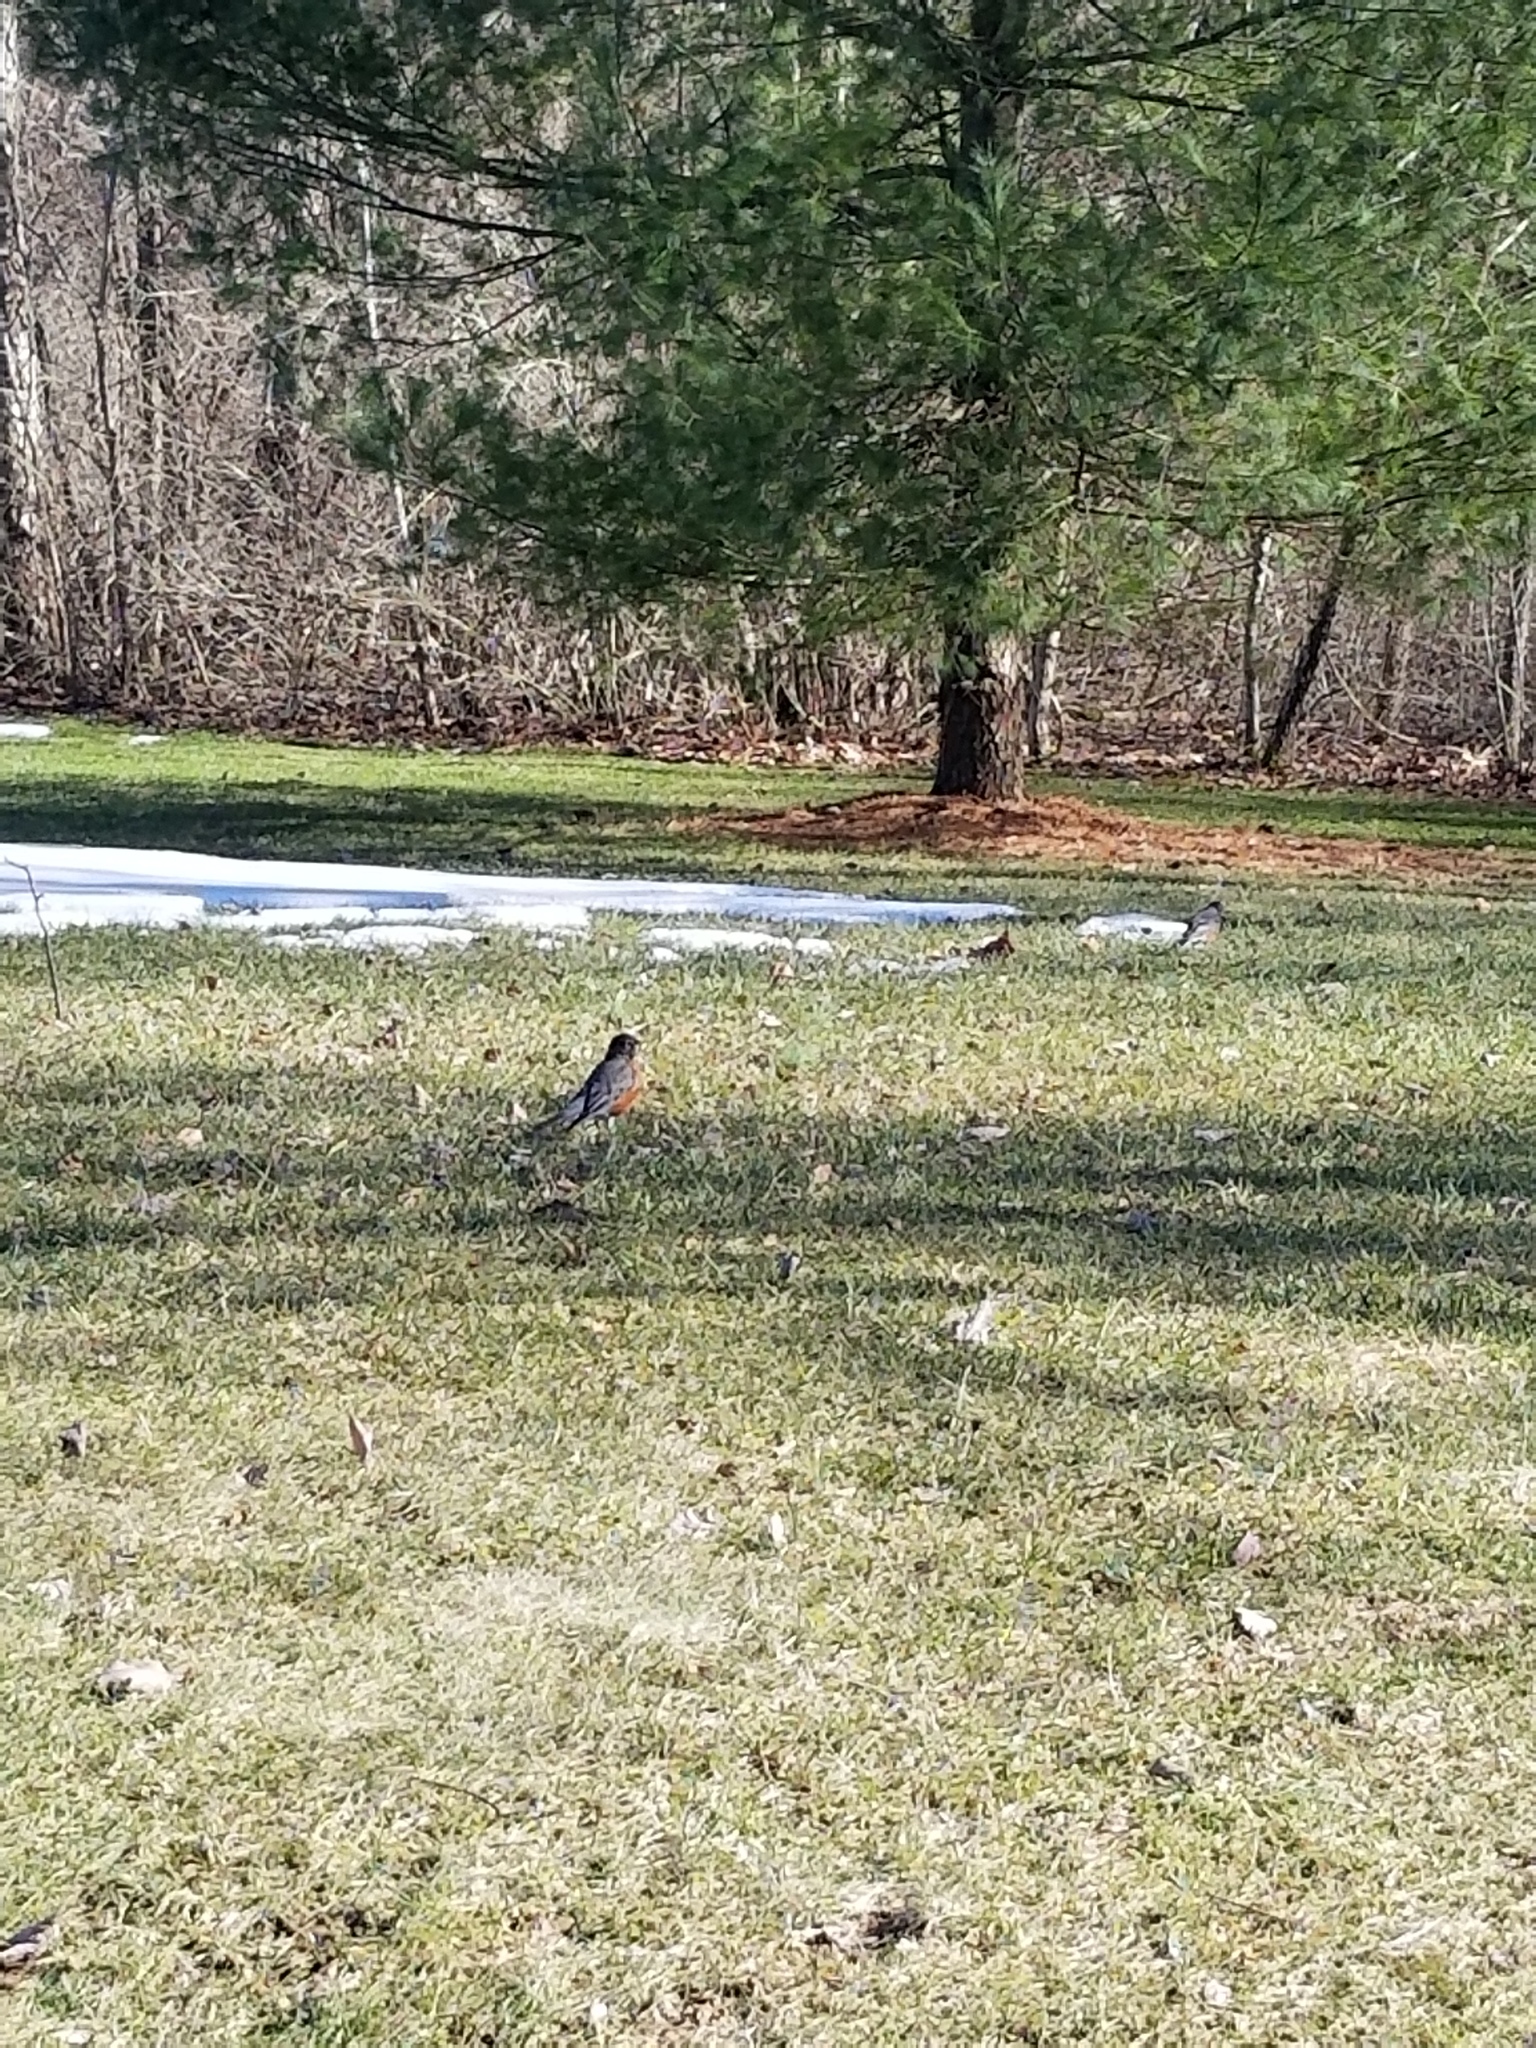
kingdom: Animalia
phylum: Chordata
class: Aves
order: Passeriformes
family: Turdidae
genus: Turdus
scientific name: Turdus migratorius
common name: American robin
